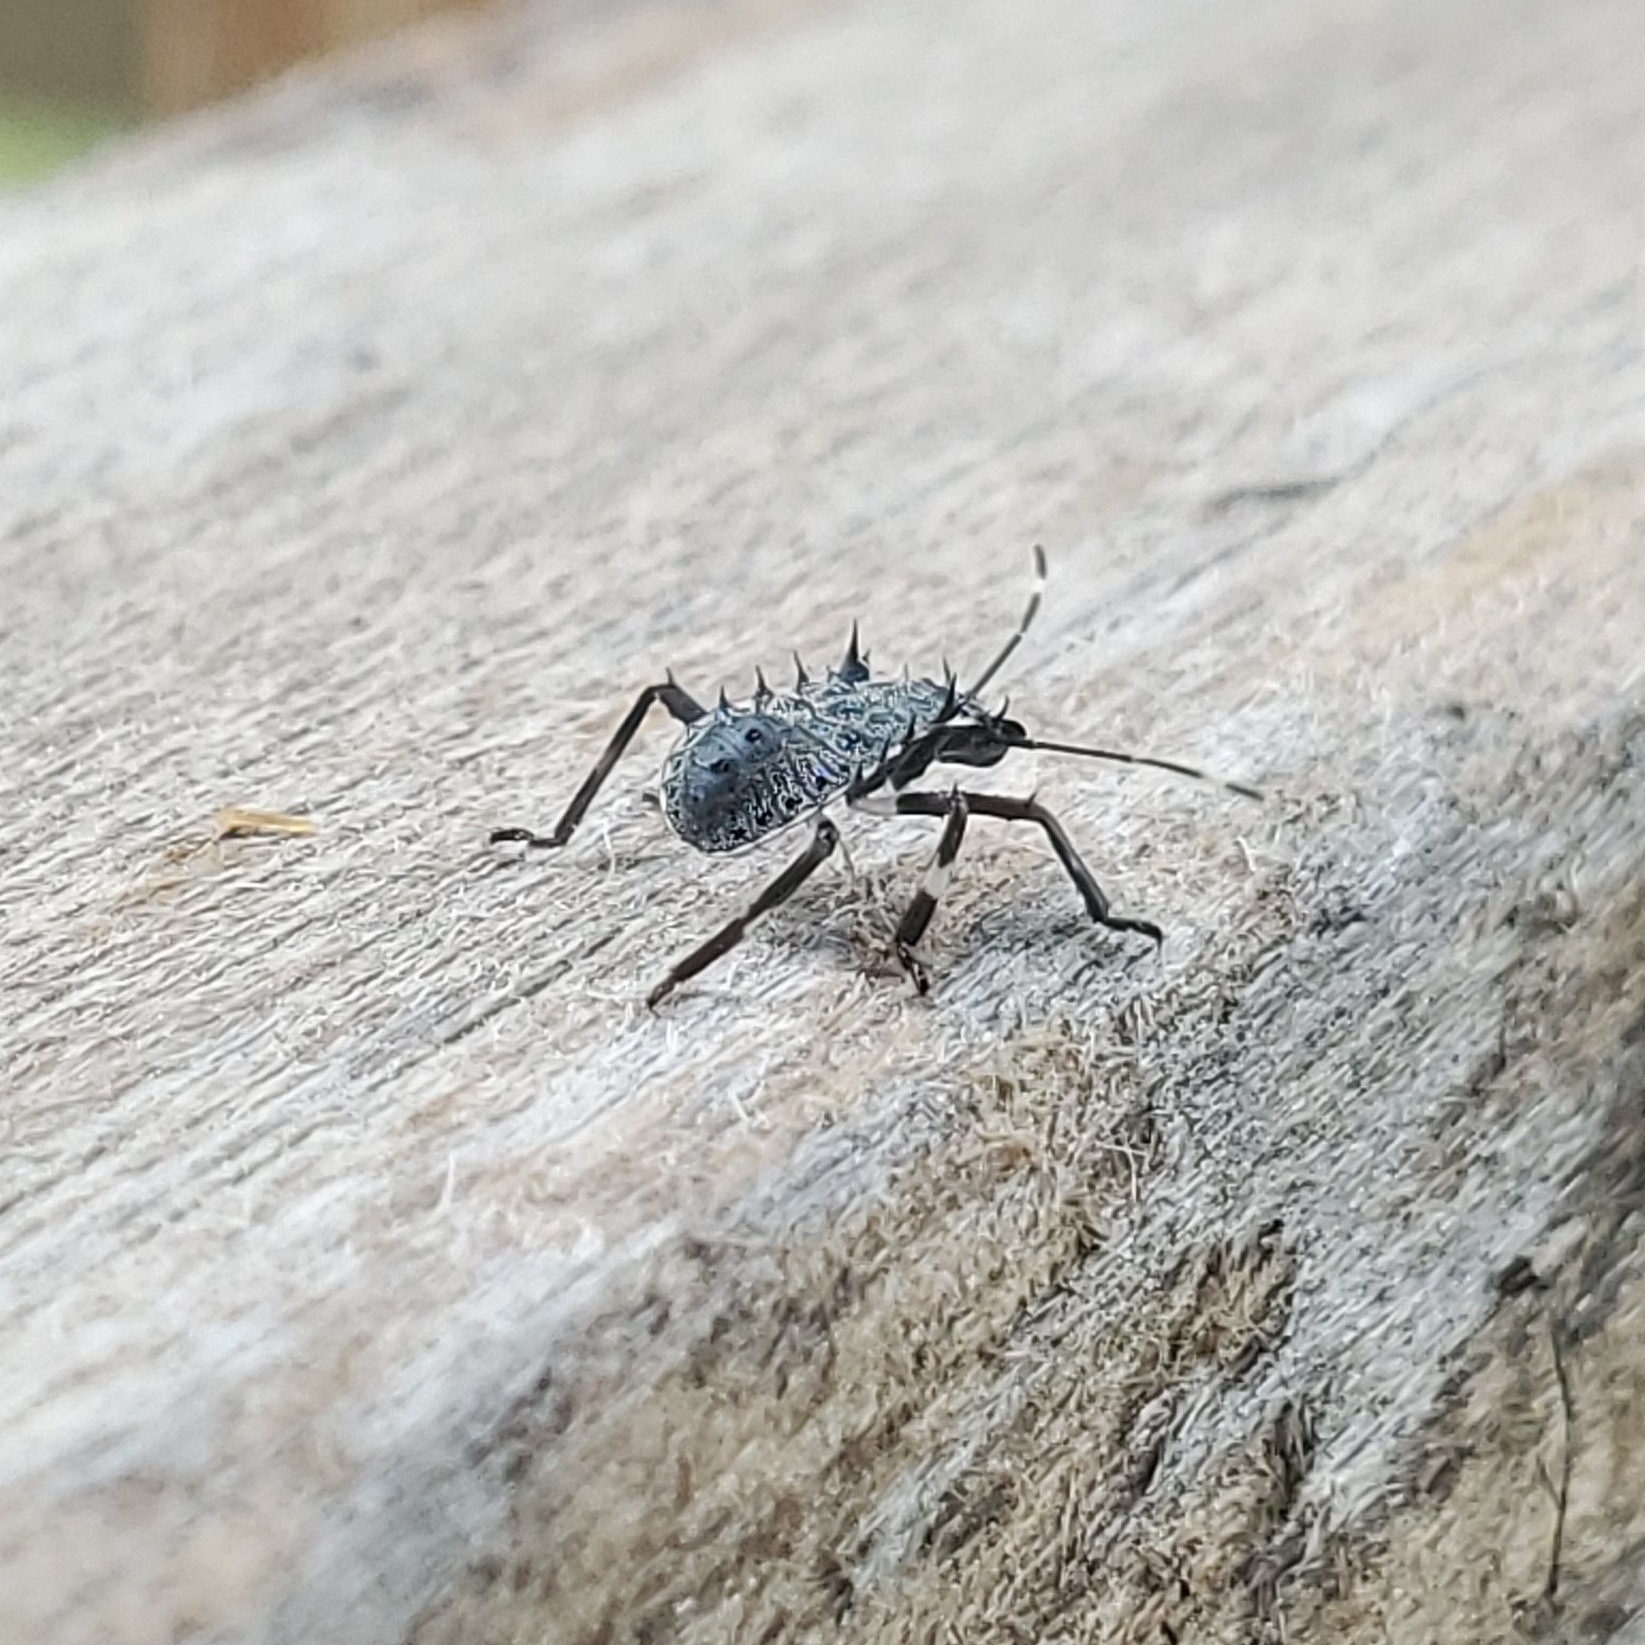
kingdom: Animalia
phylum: Arthropoda
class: Insecta
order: Hemiptera
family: Pentatomidae
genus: Halyomorpha
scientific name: Halyomorpha halys
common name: Brown marmorated stink bug
